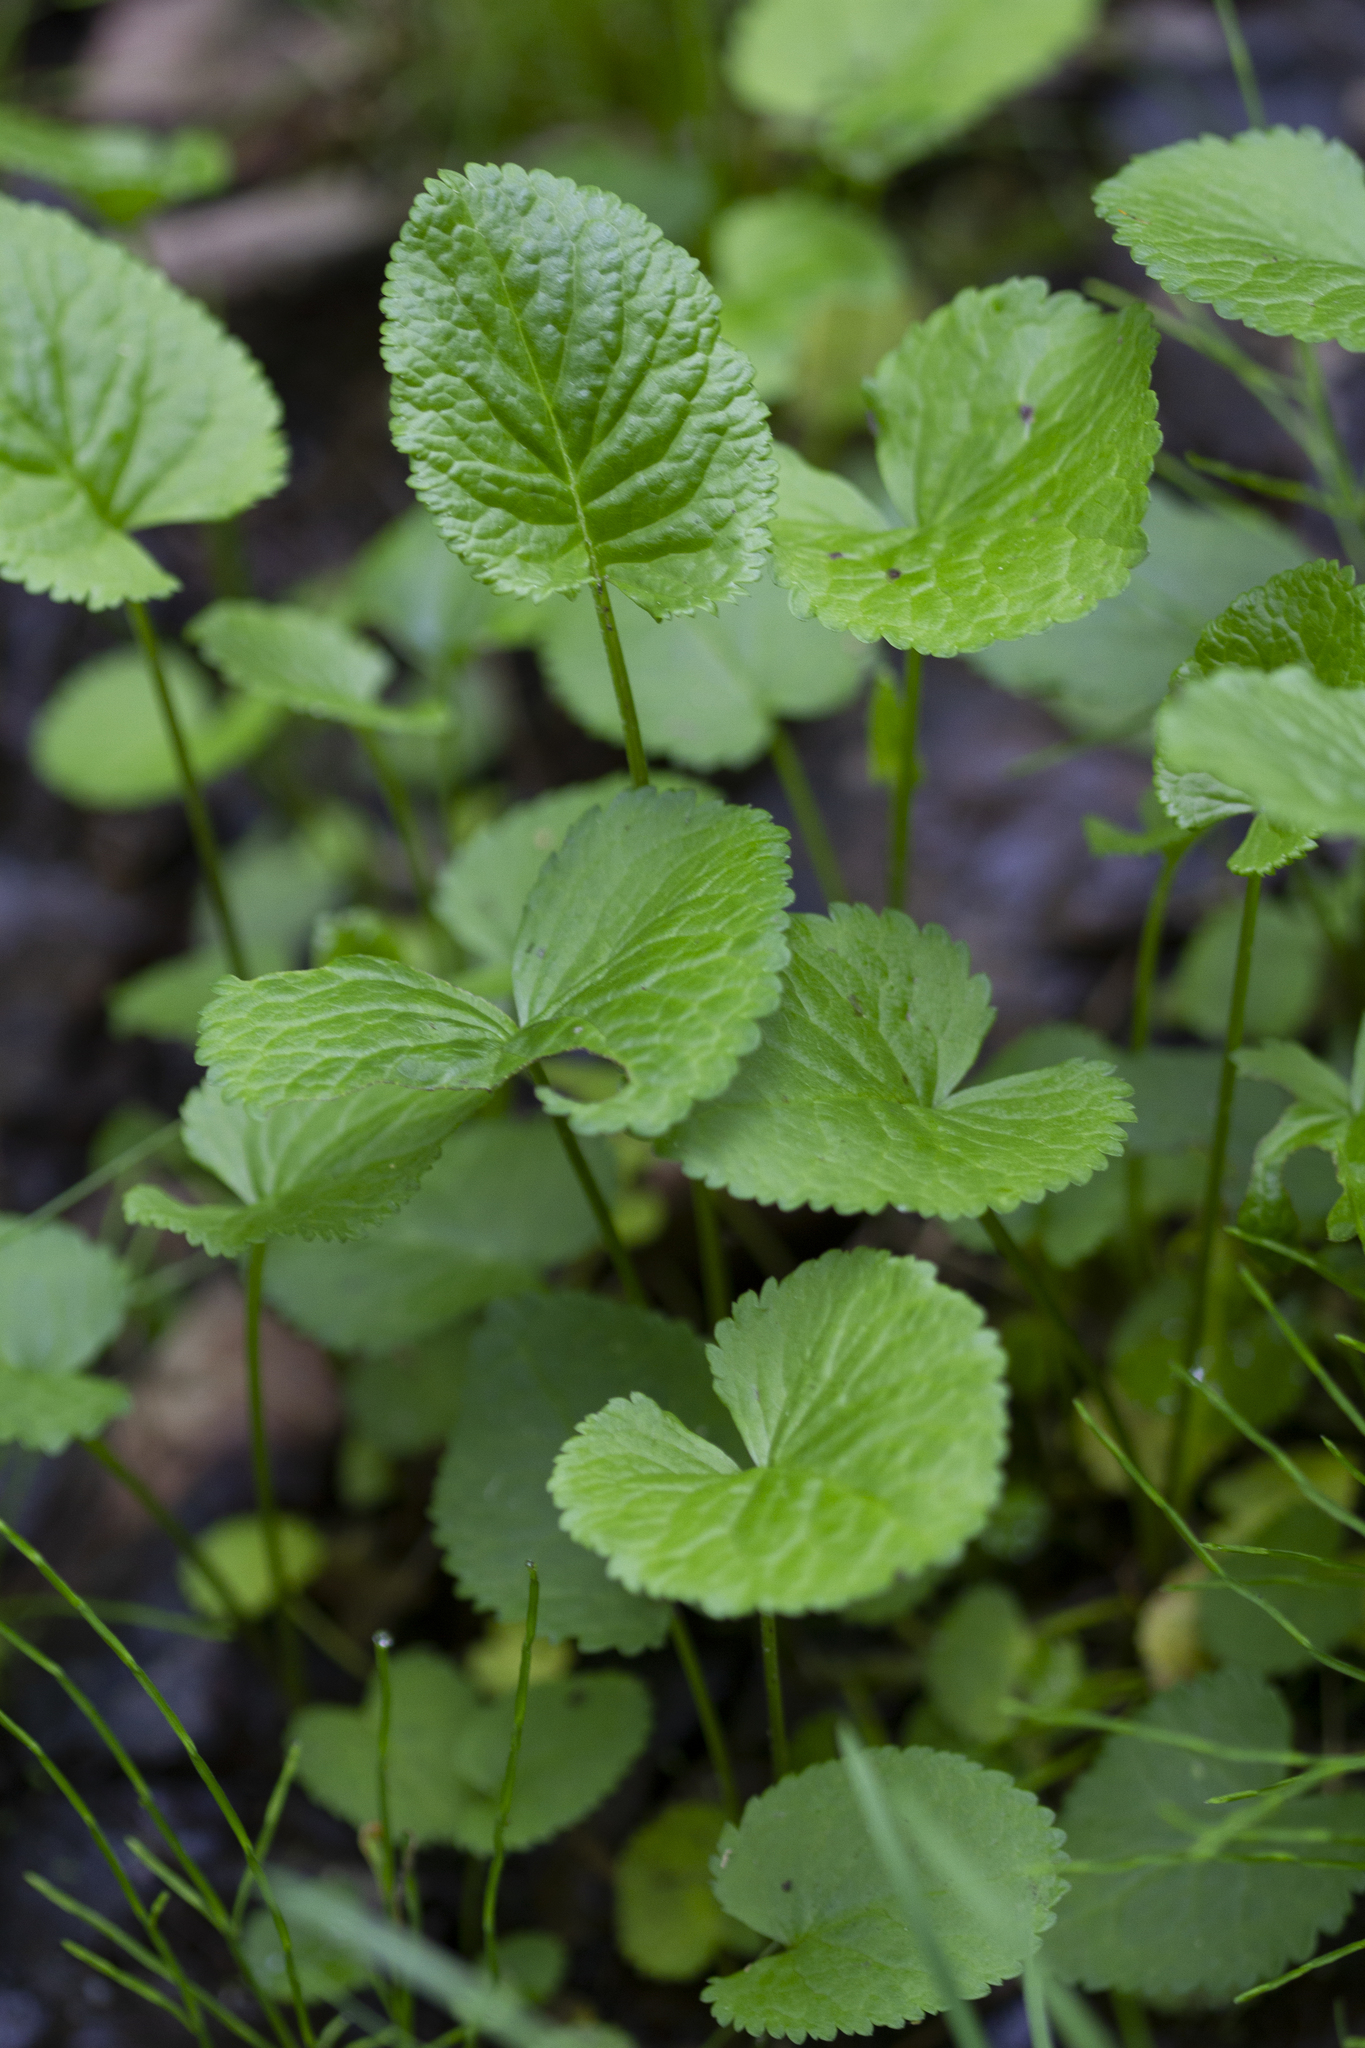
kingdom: Plantae
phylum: Tracheophyta
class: Magnoliopsida
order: Asterales
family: Asteraceae
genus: Packera
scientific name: Packera aurea
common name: Golden groundsel
